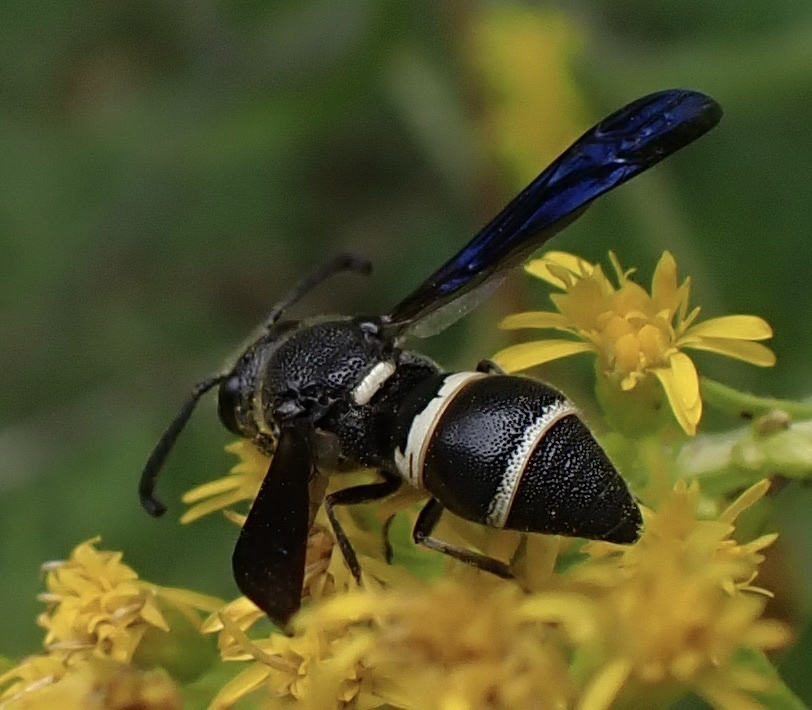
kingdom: Animalia
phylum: Arthropoda
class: Insecta
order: Hymenoptera
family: Eumenidae
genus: Euodynerus
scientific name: Euodynerus megaera
